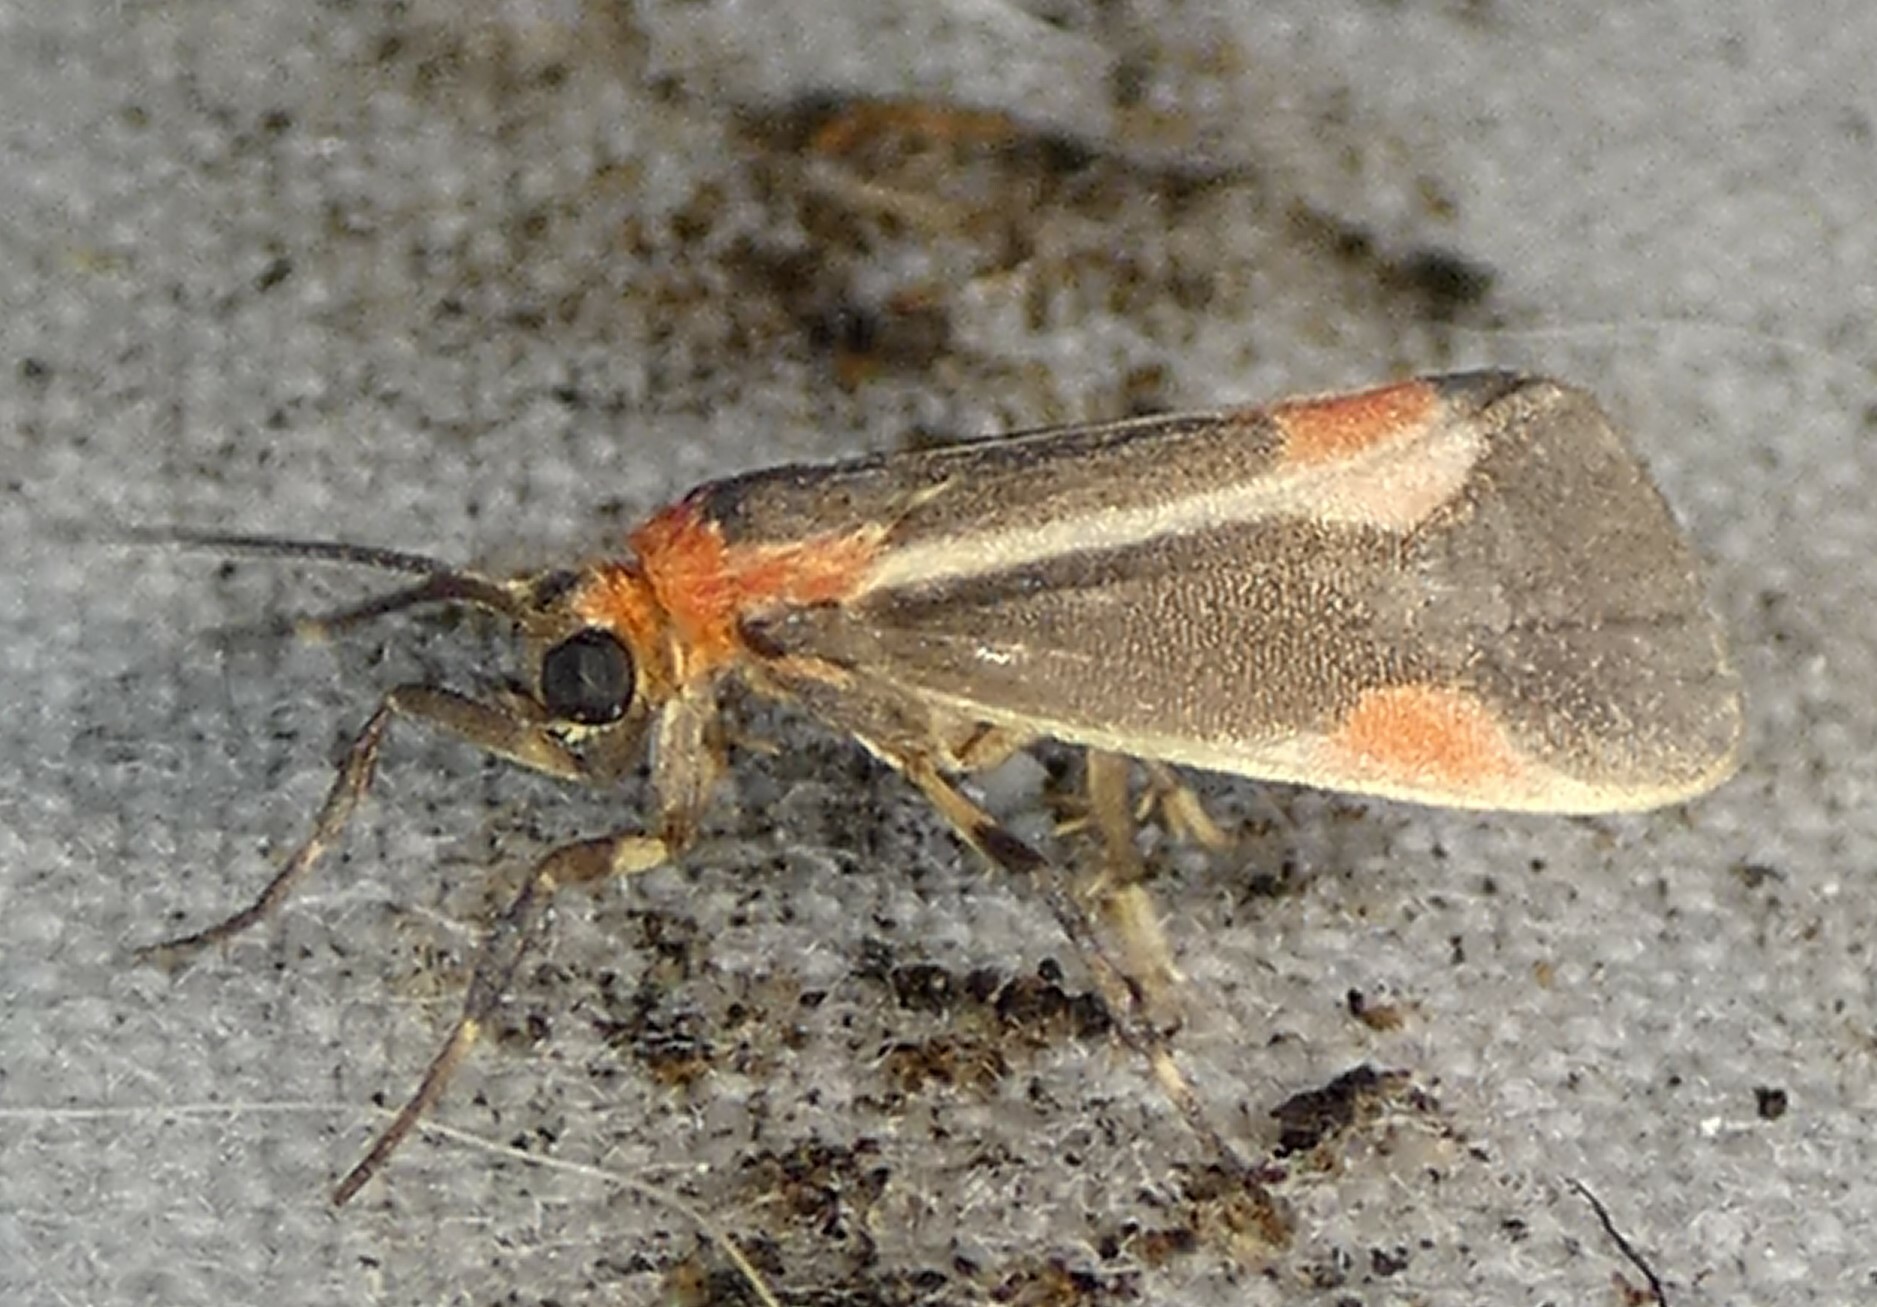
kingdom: Animalia
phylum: Arthropoda
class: Insecta
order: Lepidoptera
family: Erebidae
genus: Cisthene
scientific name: Cisthene packardii
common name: Packard's lichen moth
